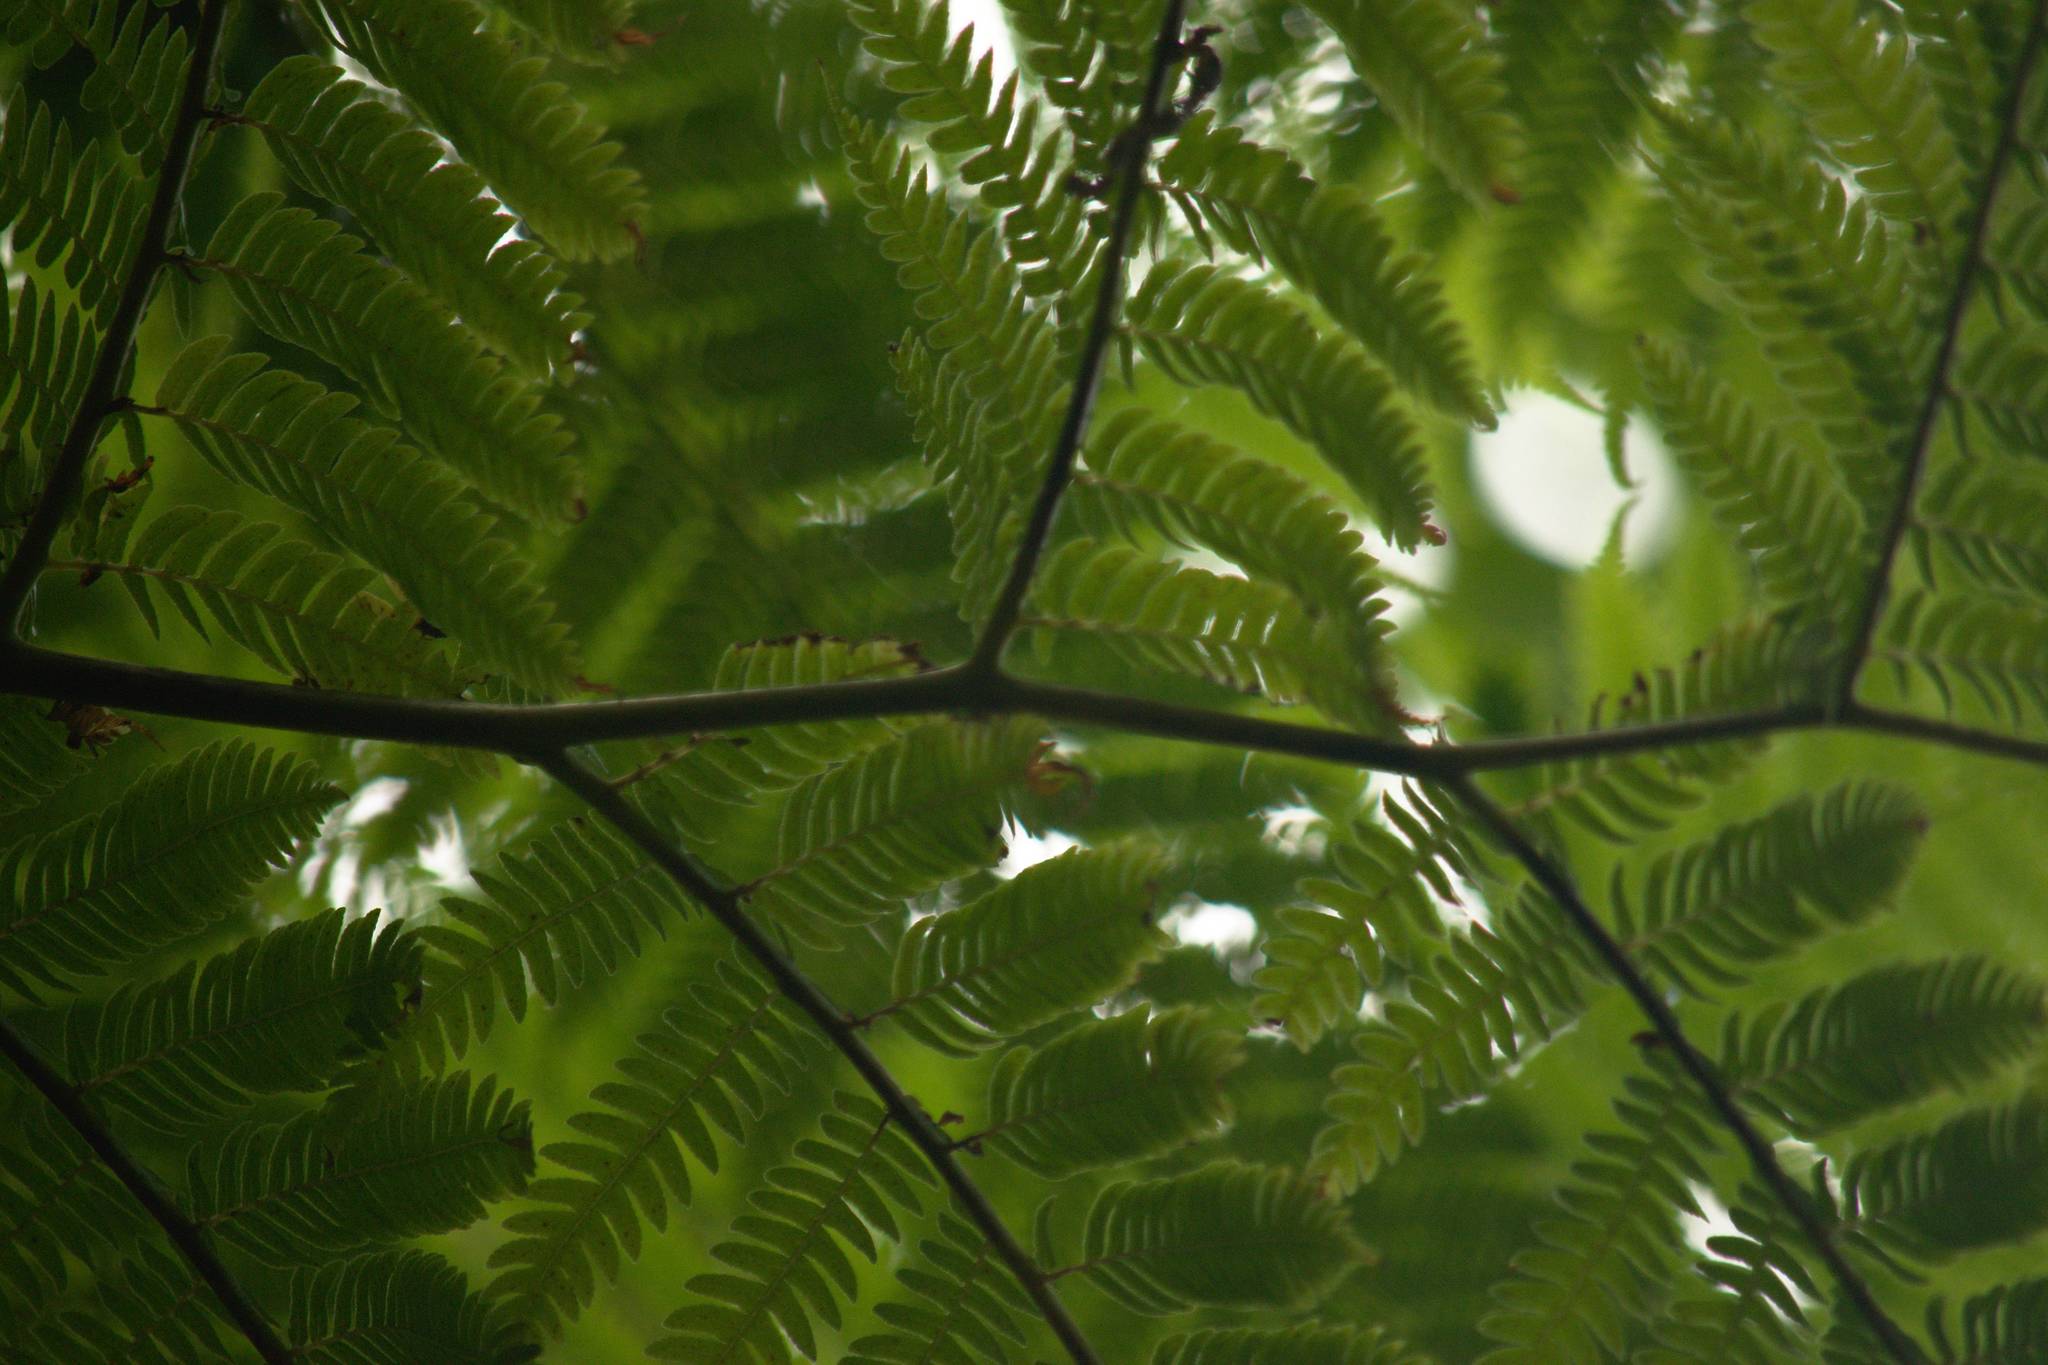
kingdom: Plantae
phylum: Tracheophyta
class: Polypodiopsida
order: Cyatheales
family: Cyatheaceae
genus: Sphaeropteris
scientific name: Sphaeropteris cooperi
